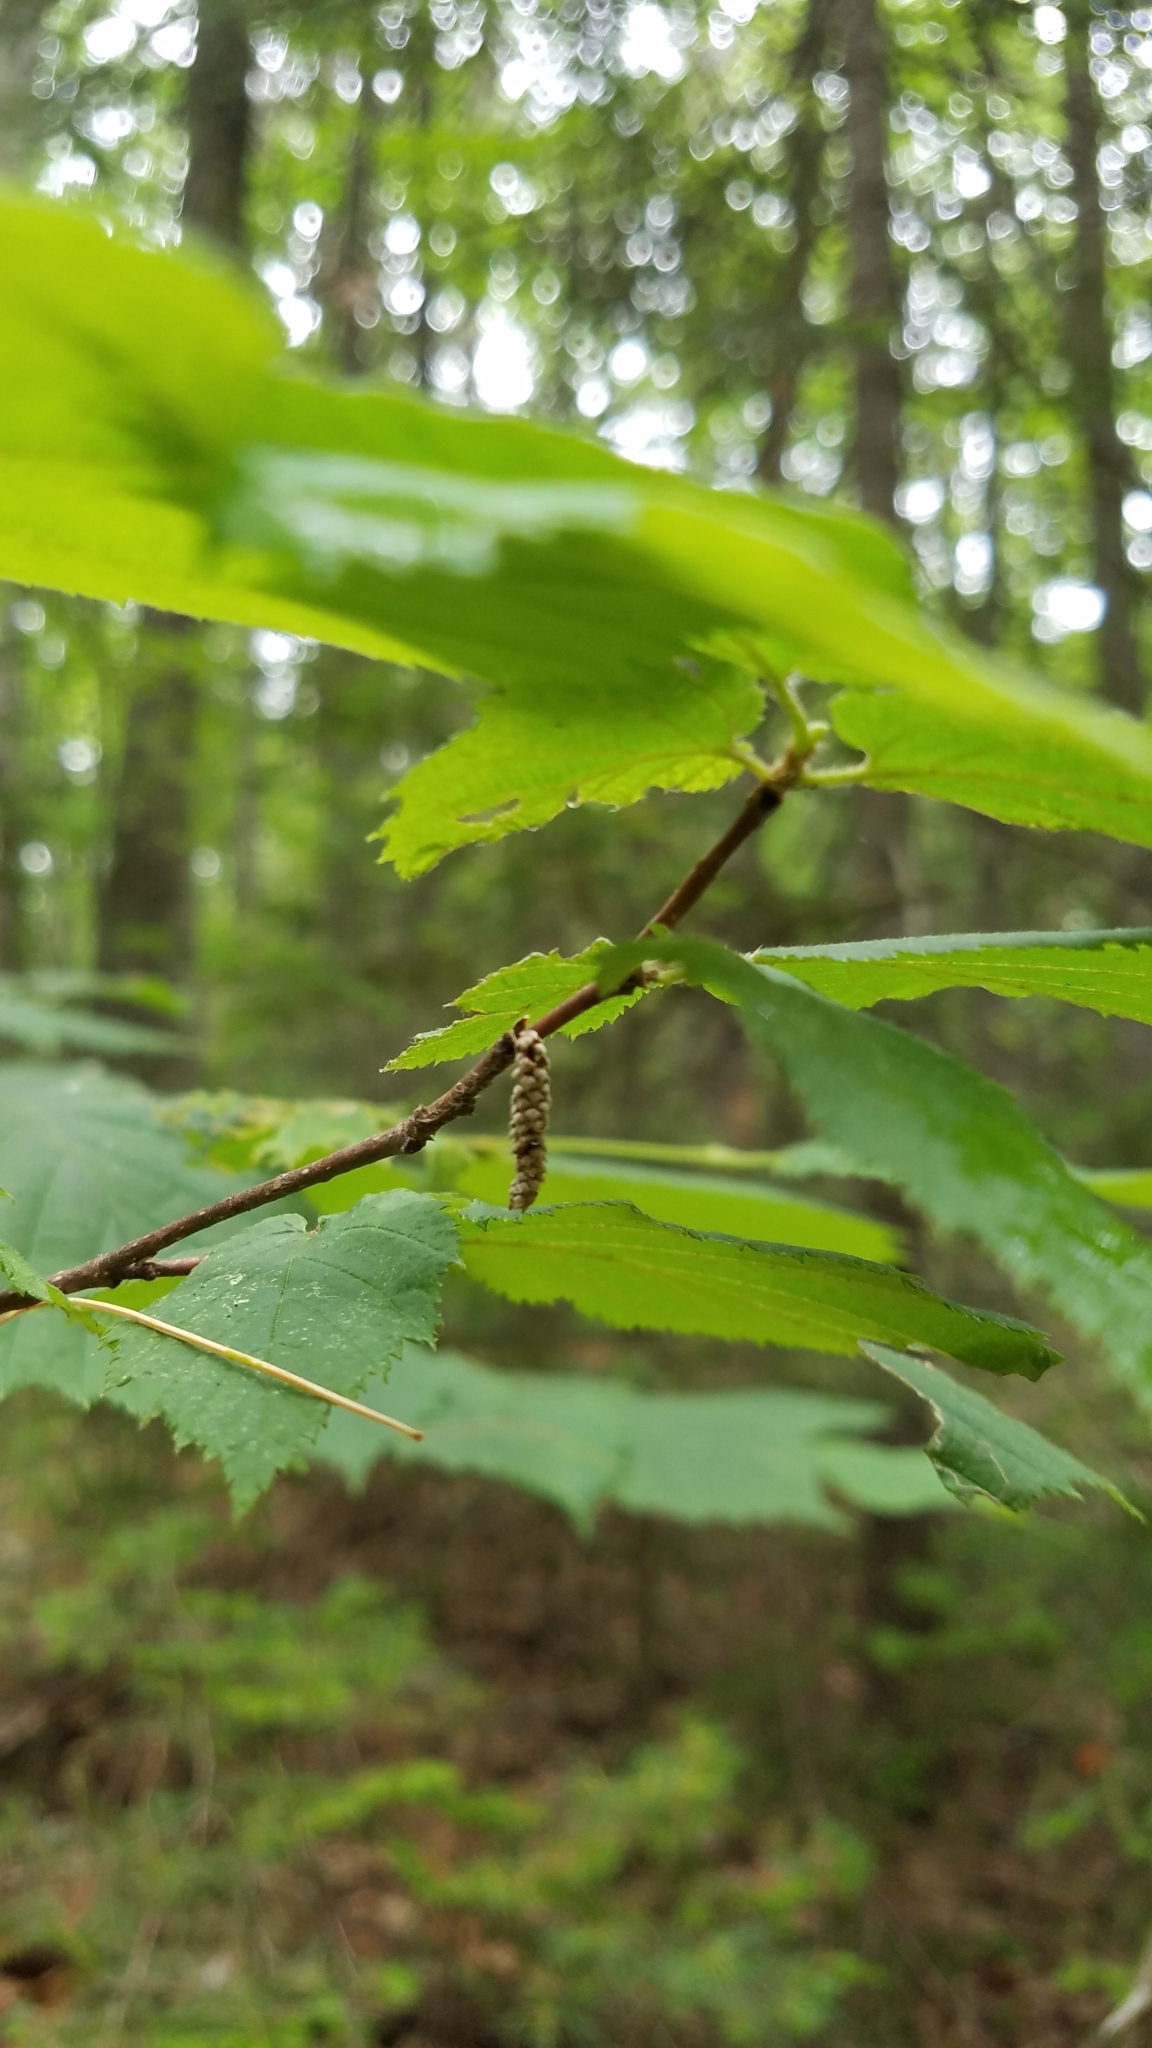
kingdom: Plantae
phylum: Tracheophyta
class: Magnoliopsida
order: Fagales
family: Betulaceae
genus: Corylus
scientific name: Corylus cornuta
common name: Beaked hazel
